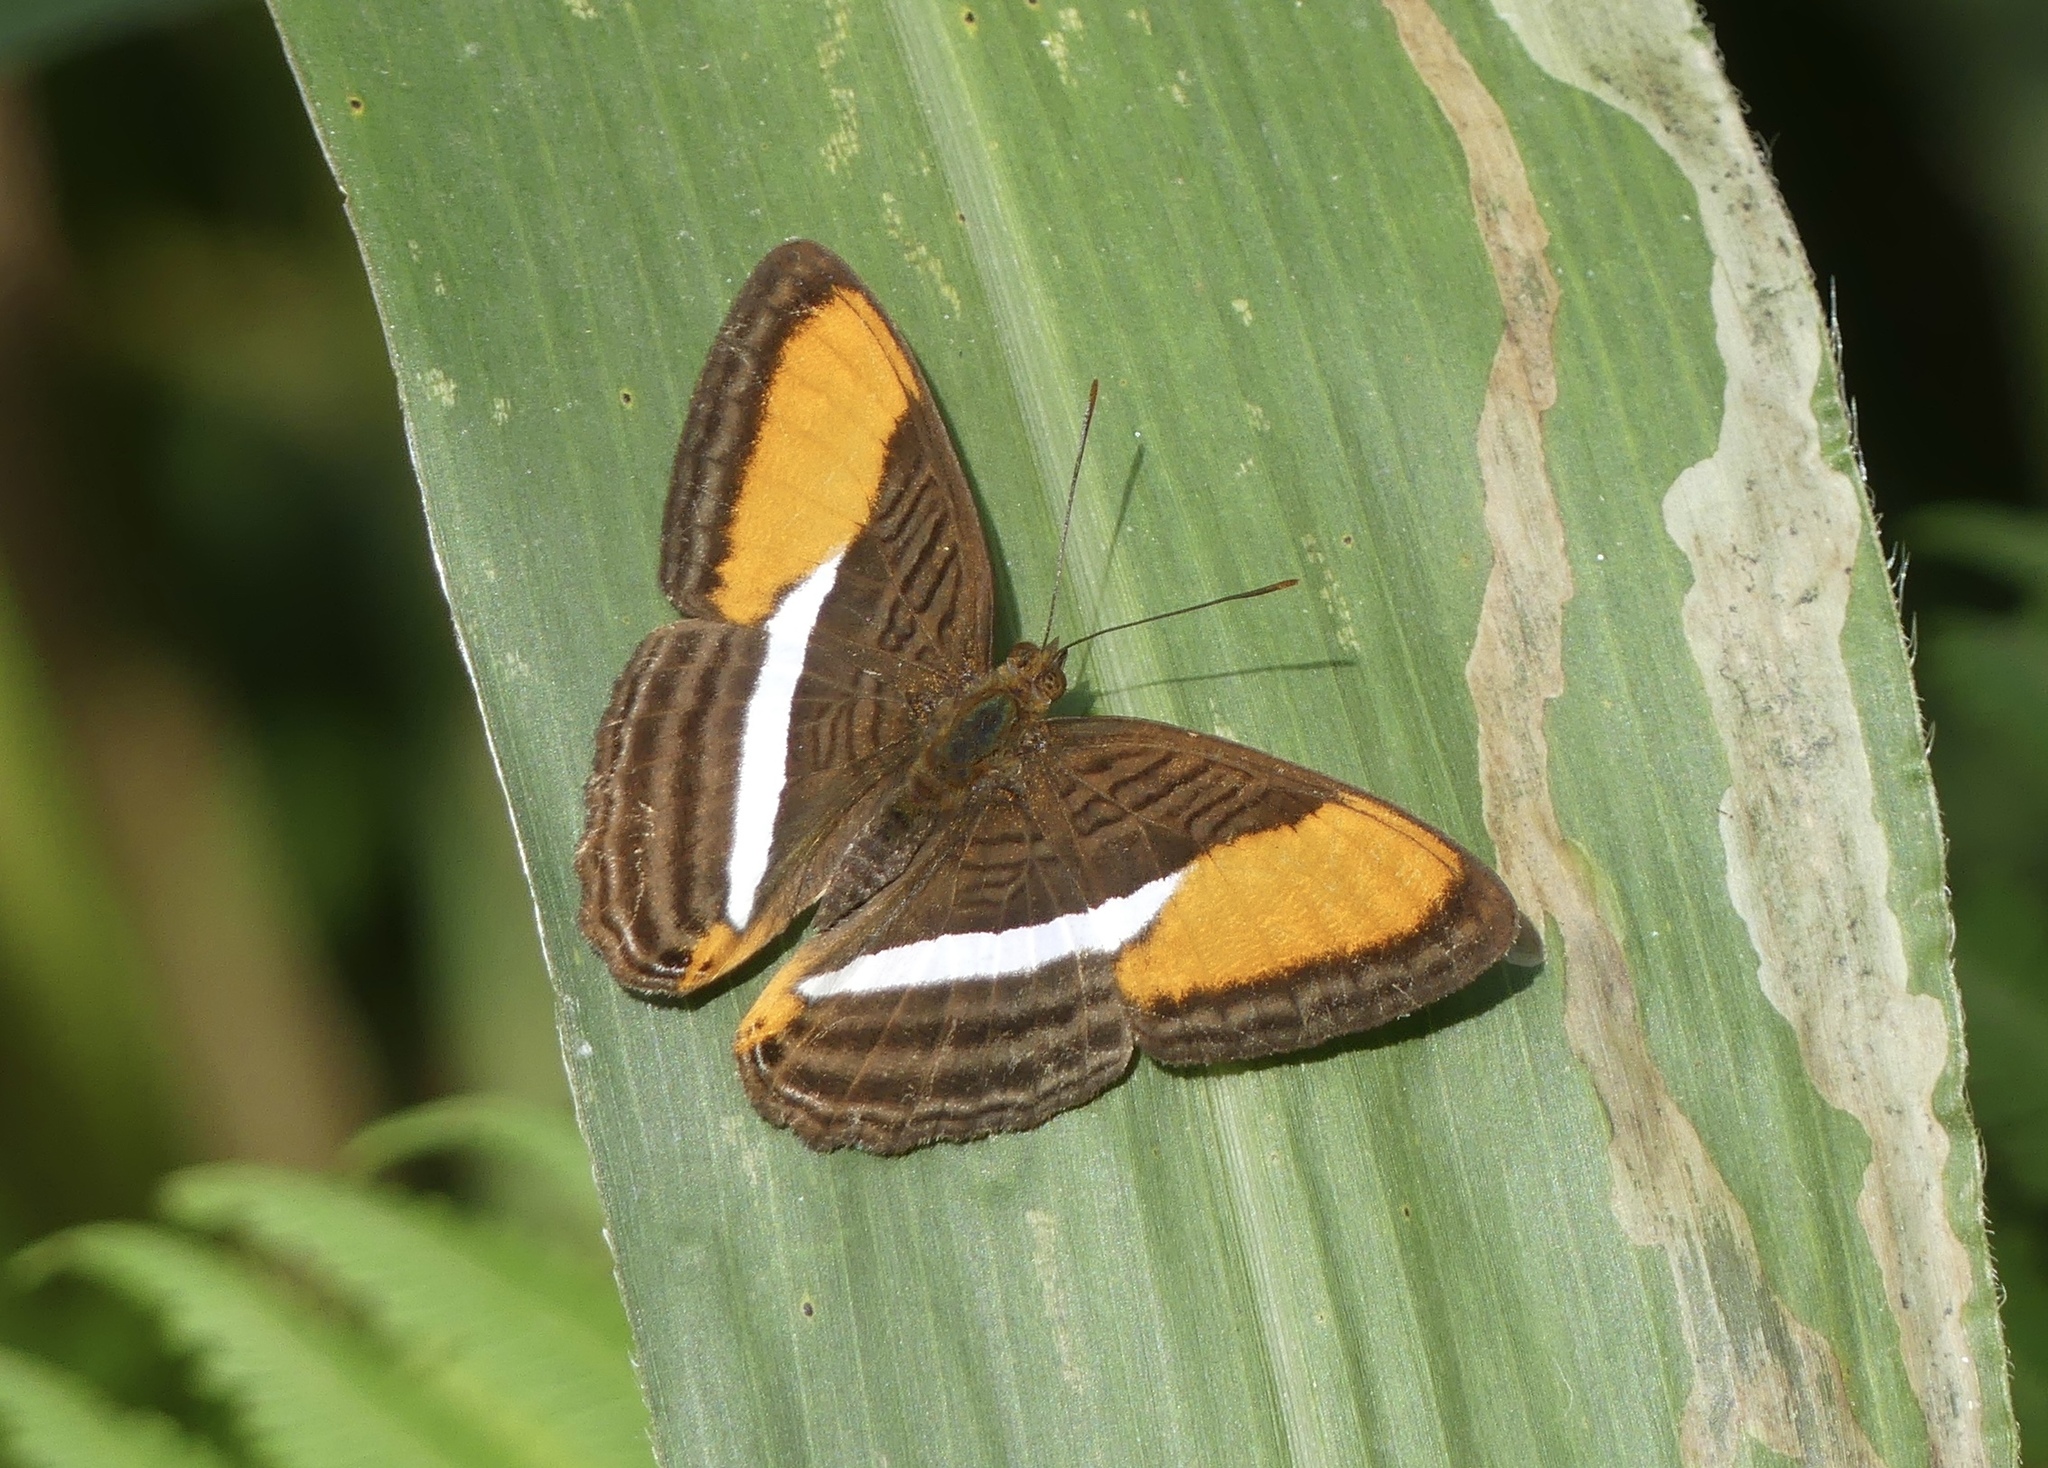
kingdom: Animalia
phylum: Arthropoda
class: Insecta
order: Lepidoptera
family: Nymphalidae
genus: Limenitis
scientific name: Limenitis cytherea
